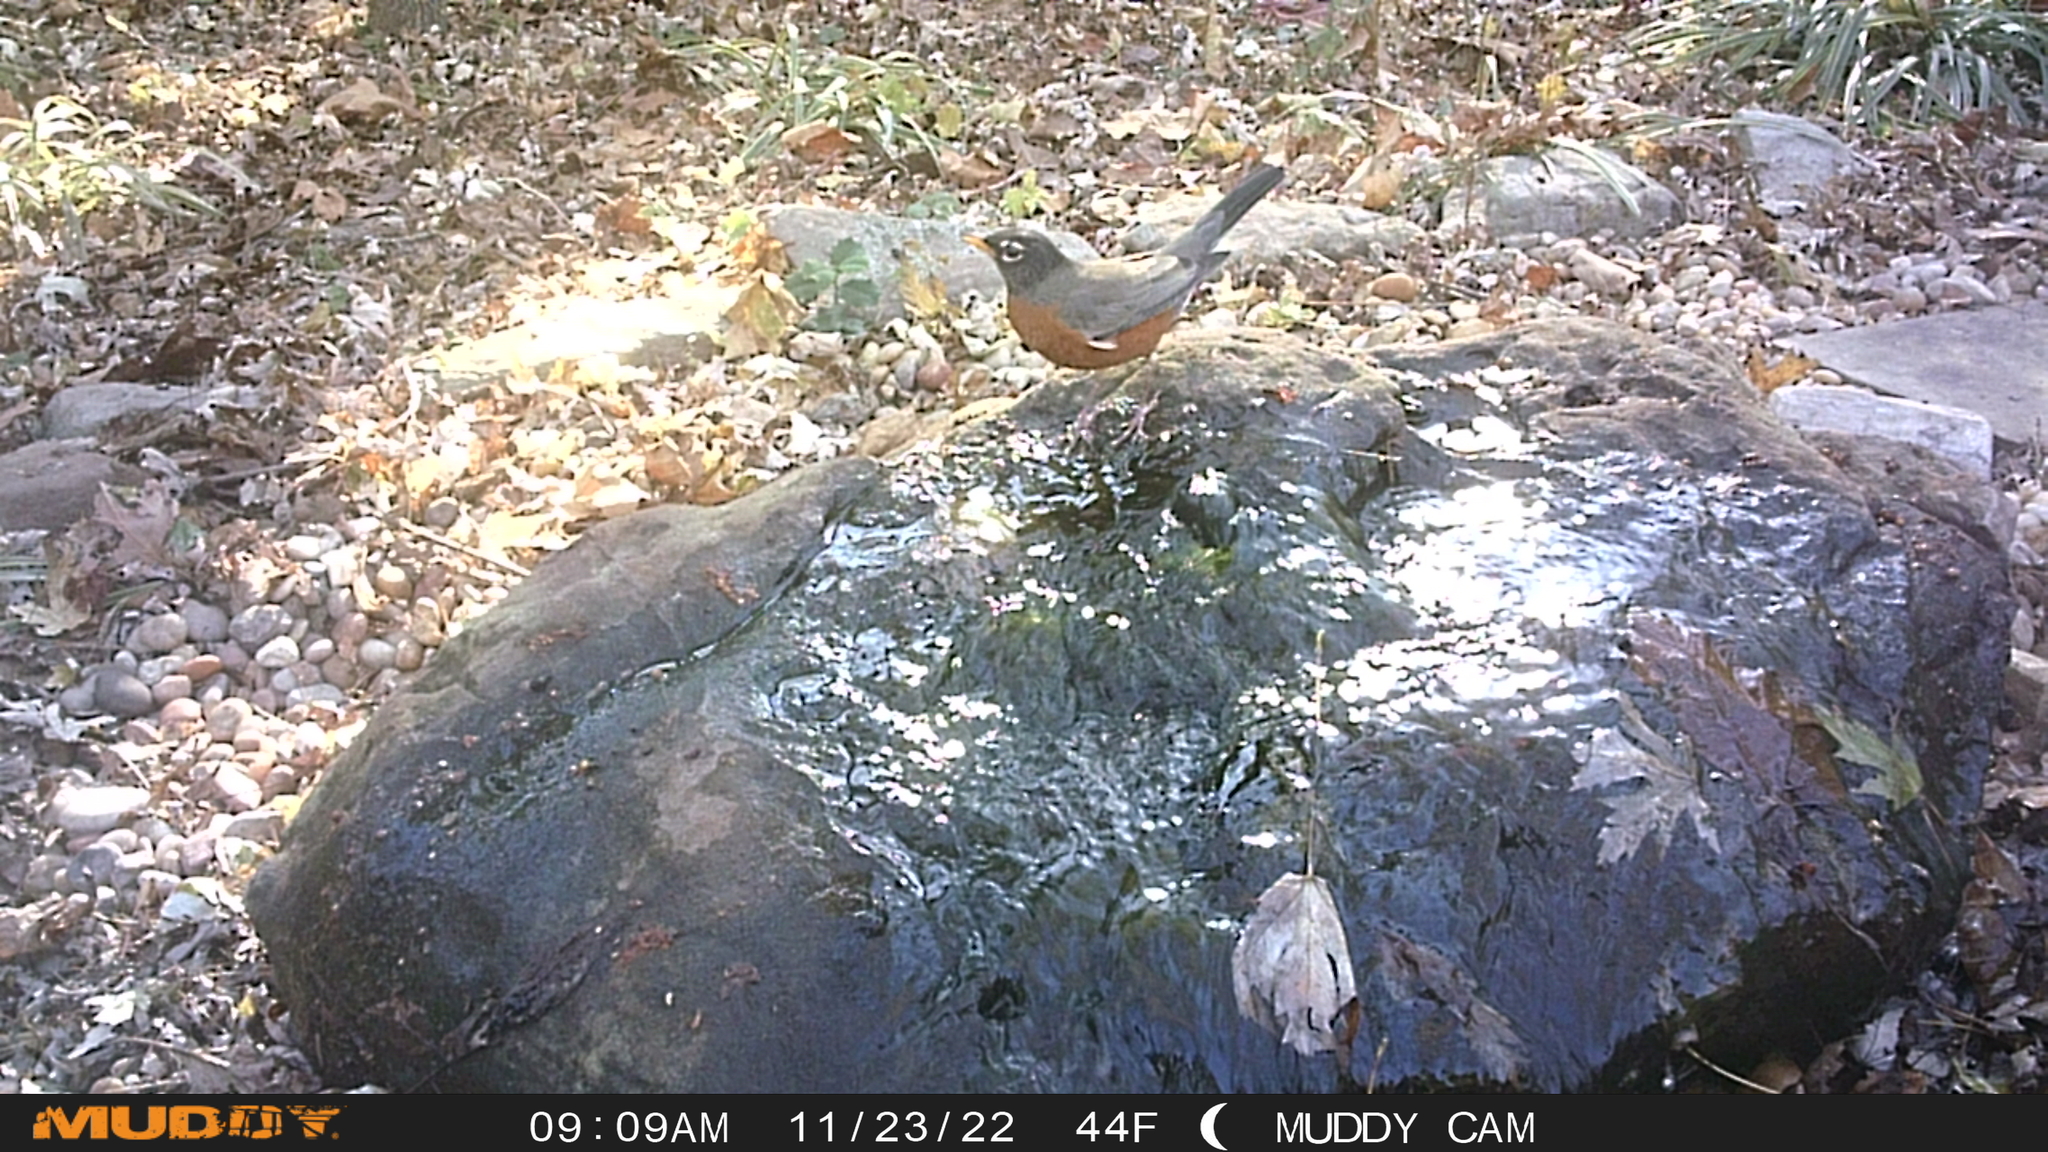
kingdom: Animalia
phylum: Chordata
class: Aves
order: Passeriformes
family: Turdidae
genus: Turdus
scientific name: Turdus migratorius
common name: American robin
